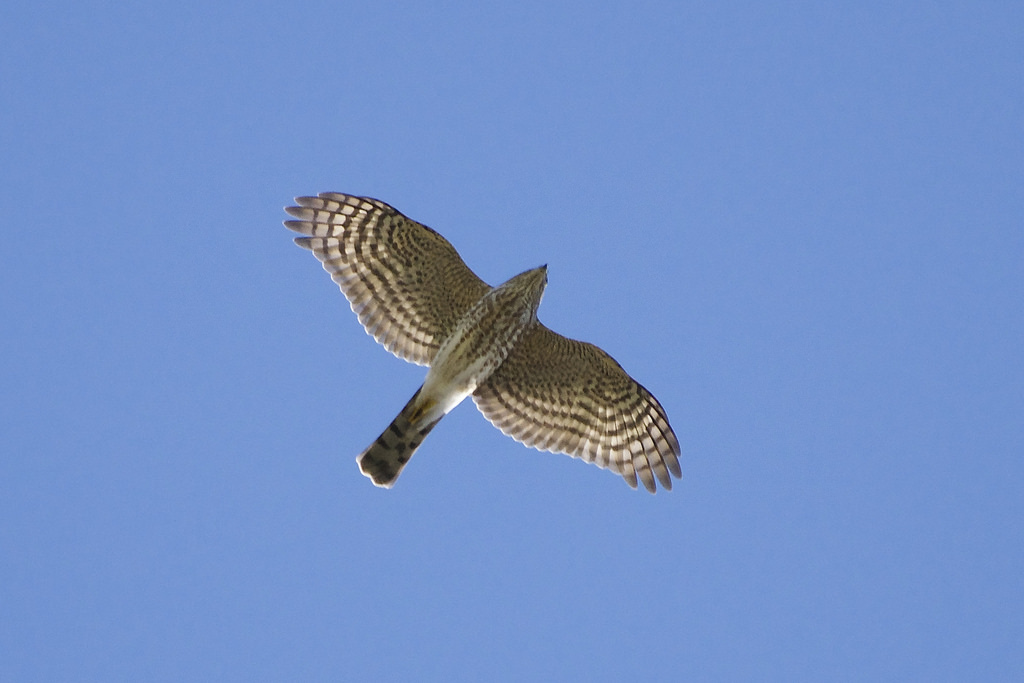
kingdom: Animalia
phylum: Chordata
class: Aves
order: Accipitriformes
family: Accipitridae
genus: Accipiter
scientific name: Accipiter striatus
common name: Sharp-shinned hawk
